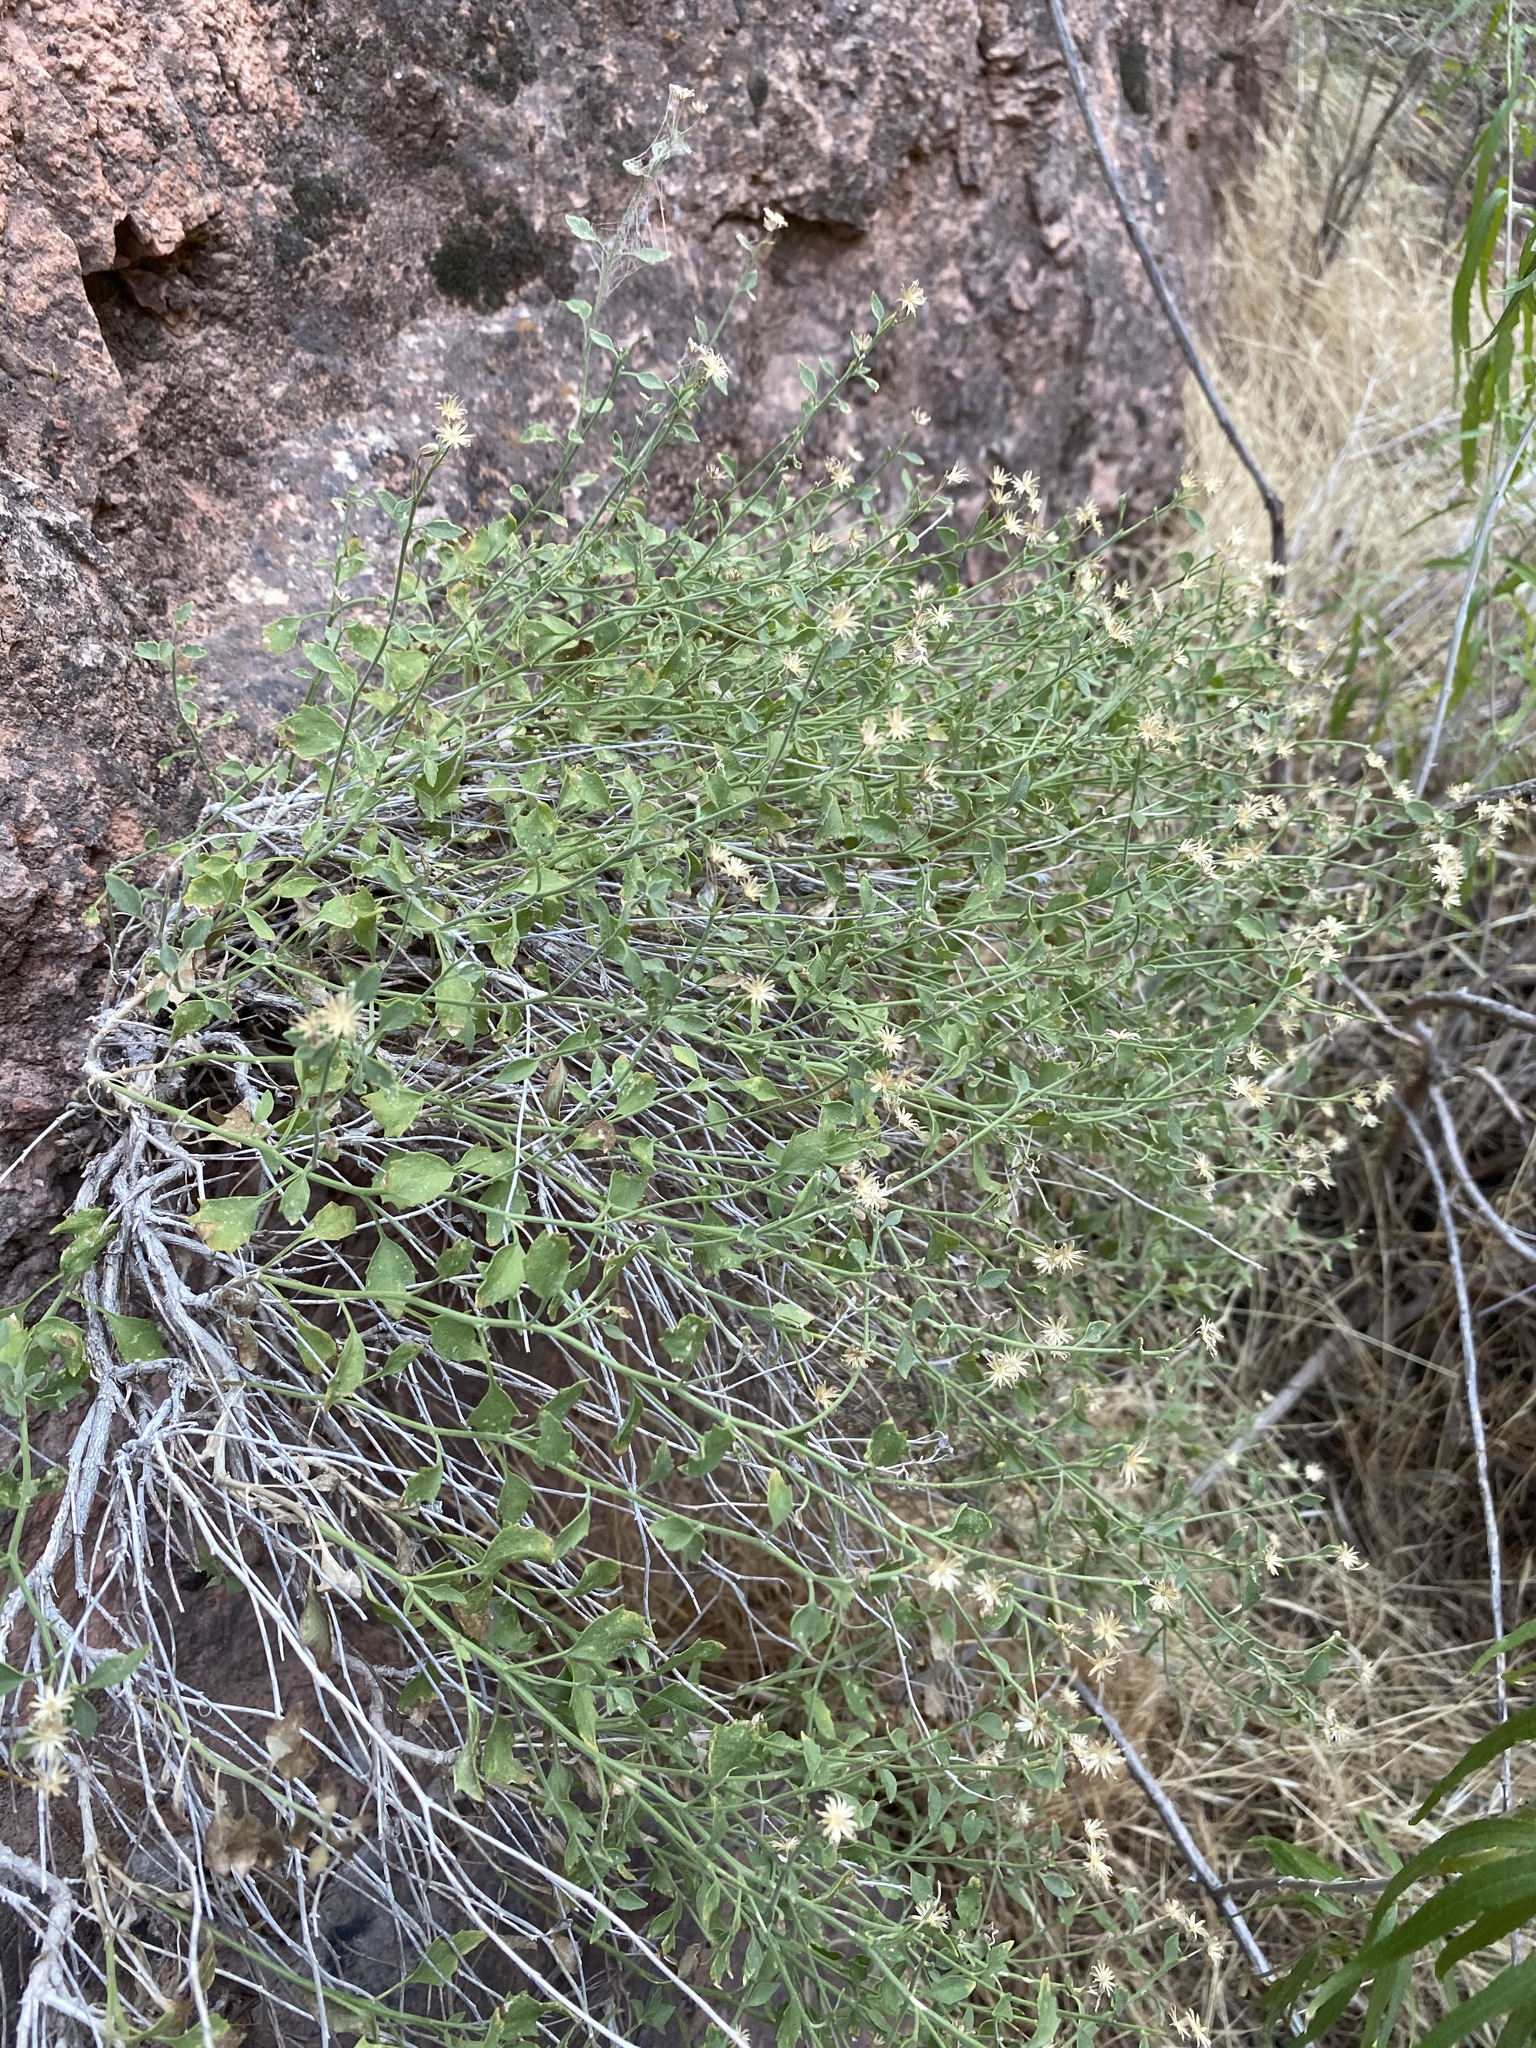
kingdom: Plantae
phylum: Tracheophyta
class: Magnoliopsida
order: Asterales
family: Asteraceae
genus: Laphamia
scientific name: Laphamia congesta
